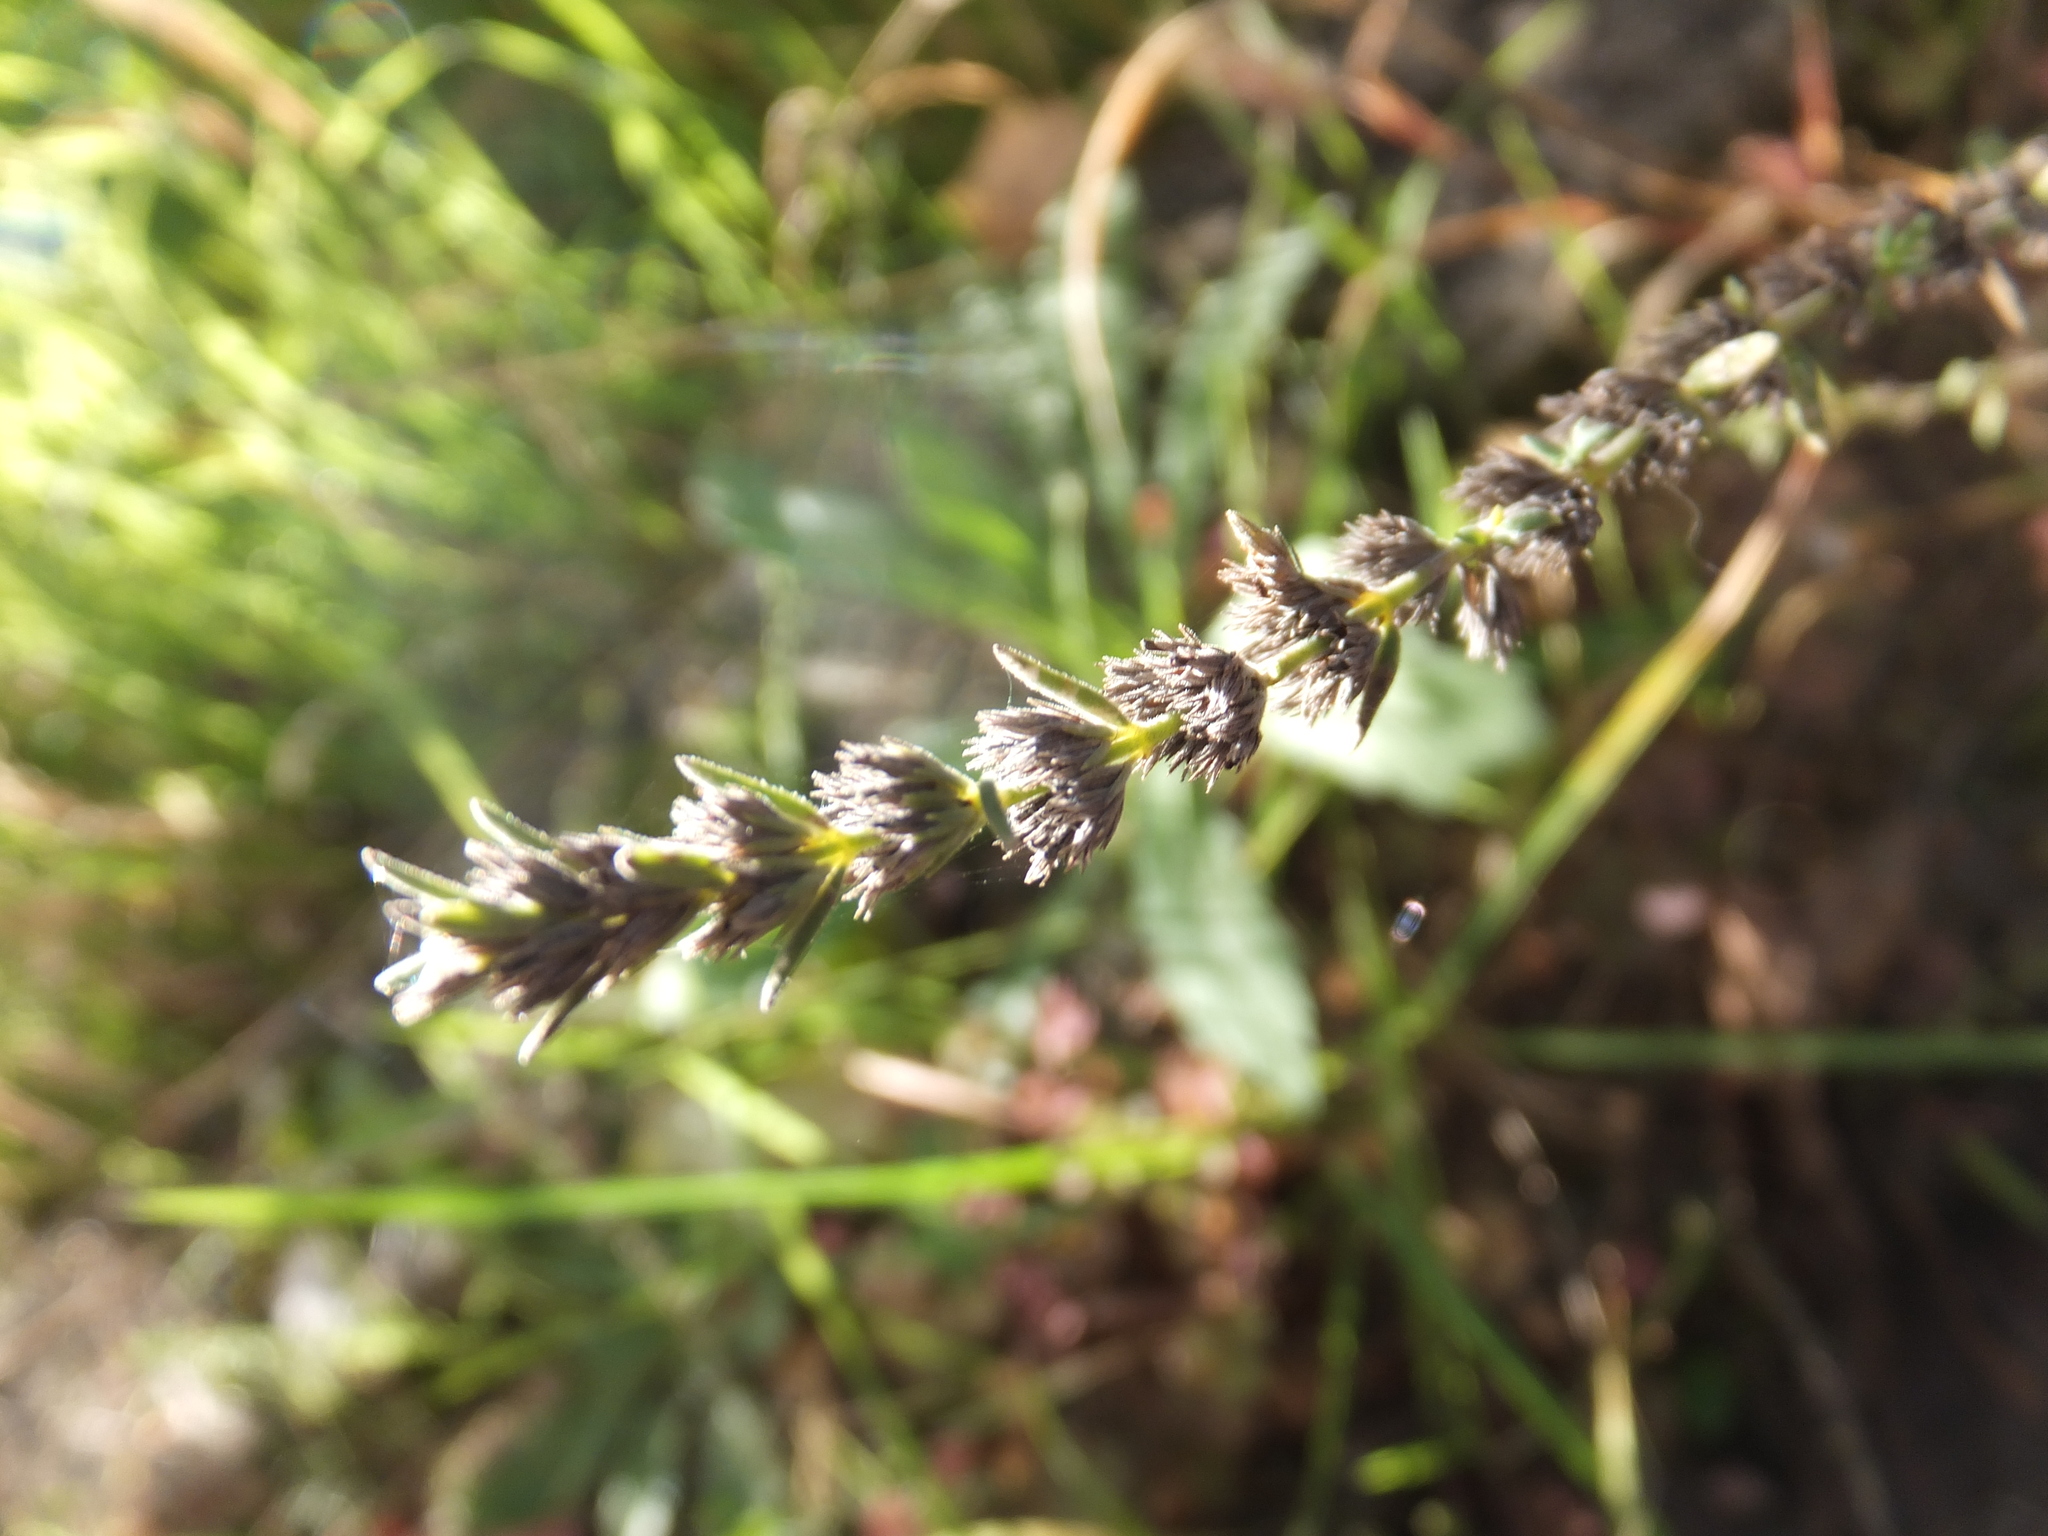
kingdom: Plantae
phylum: Tracheophyta
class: Magnoliopsida
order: Lamiales
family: Lamiaceae
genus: Micromeria
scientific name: Micromeria juliana
